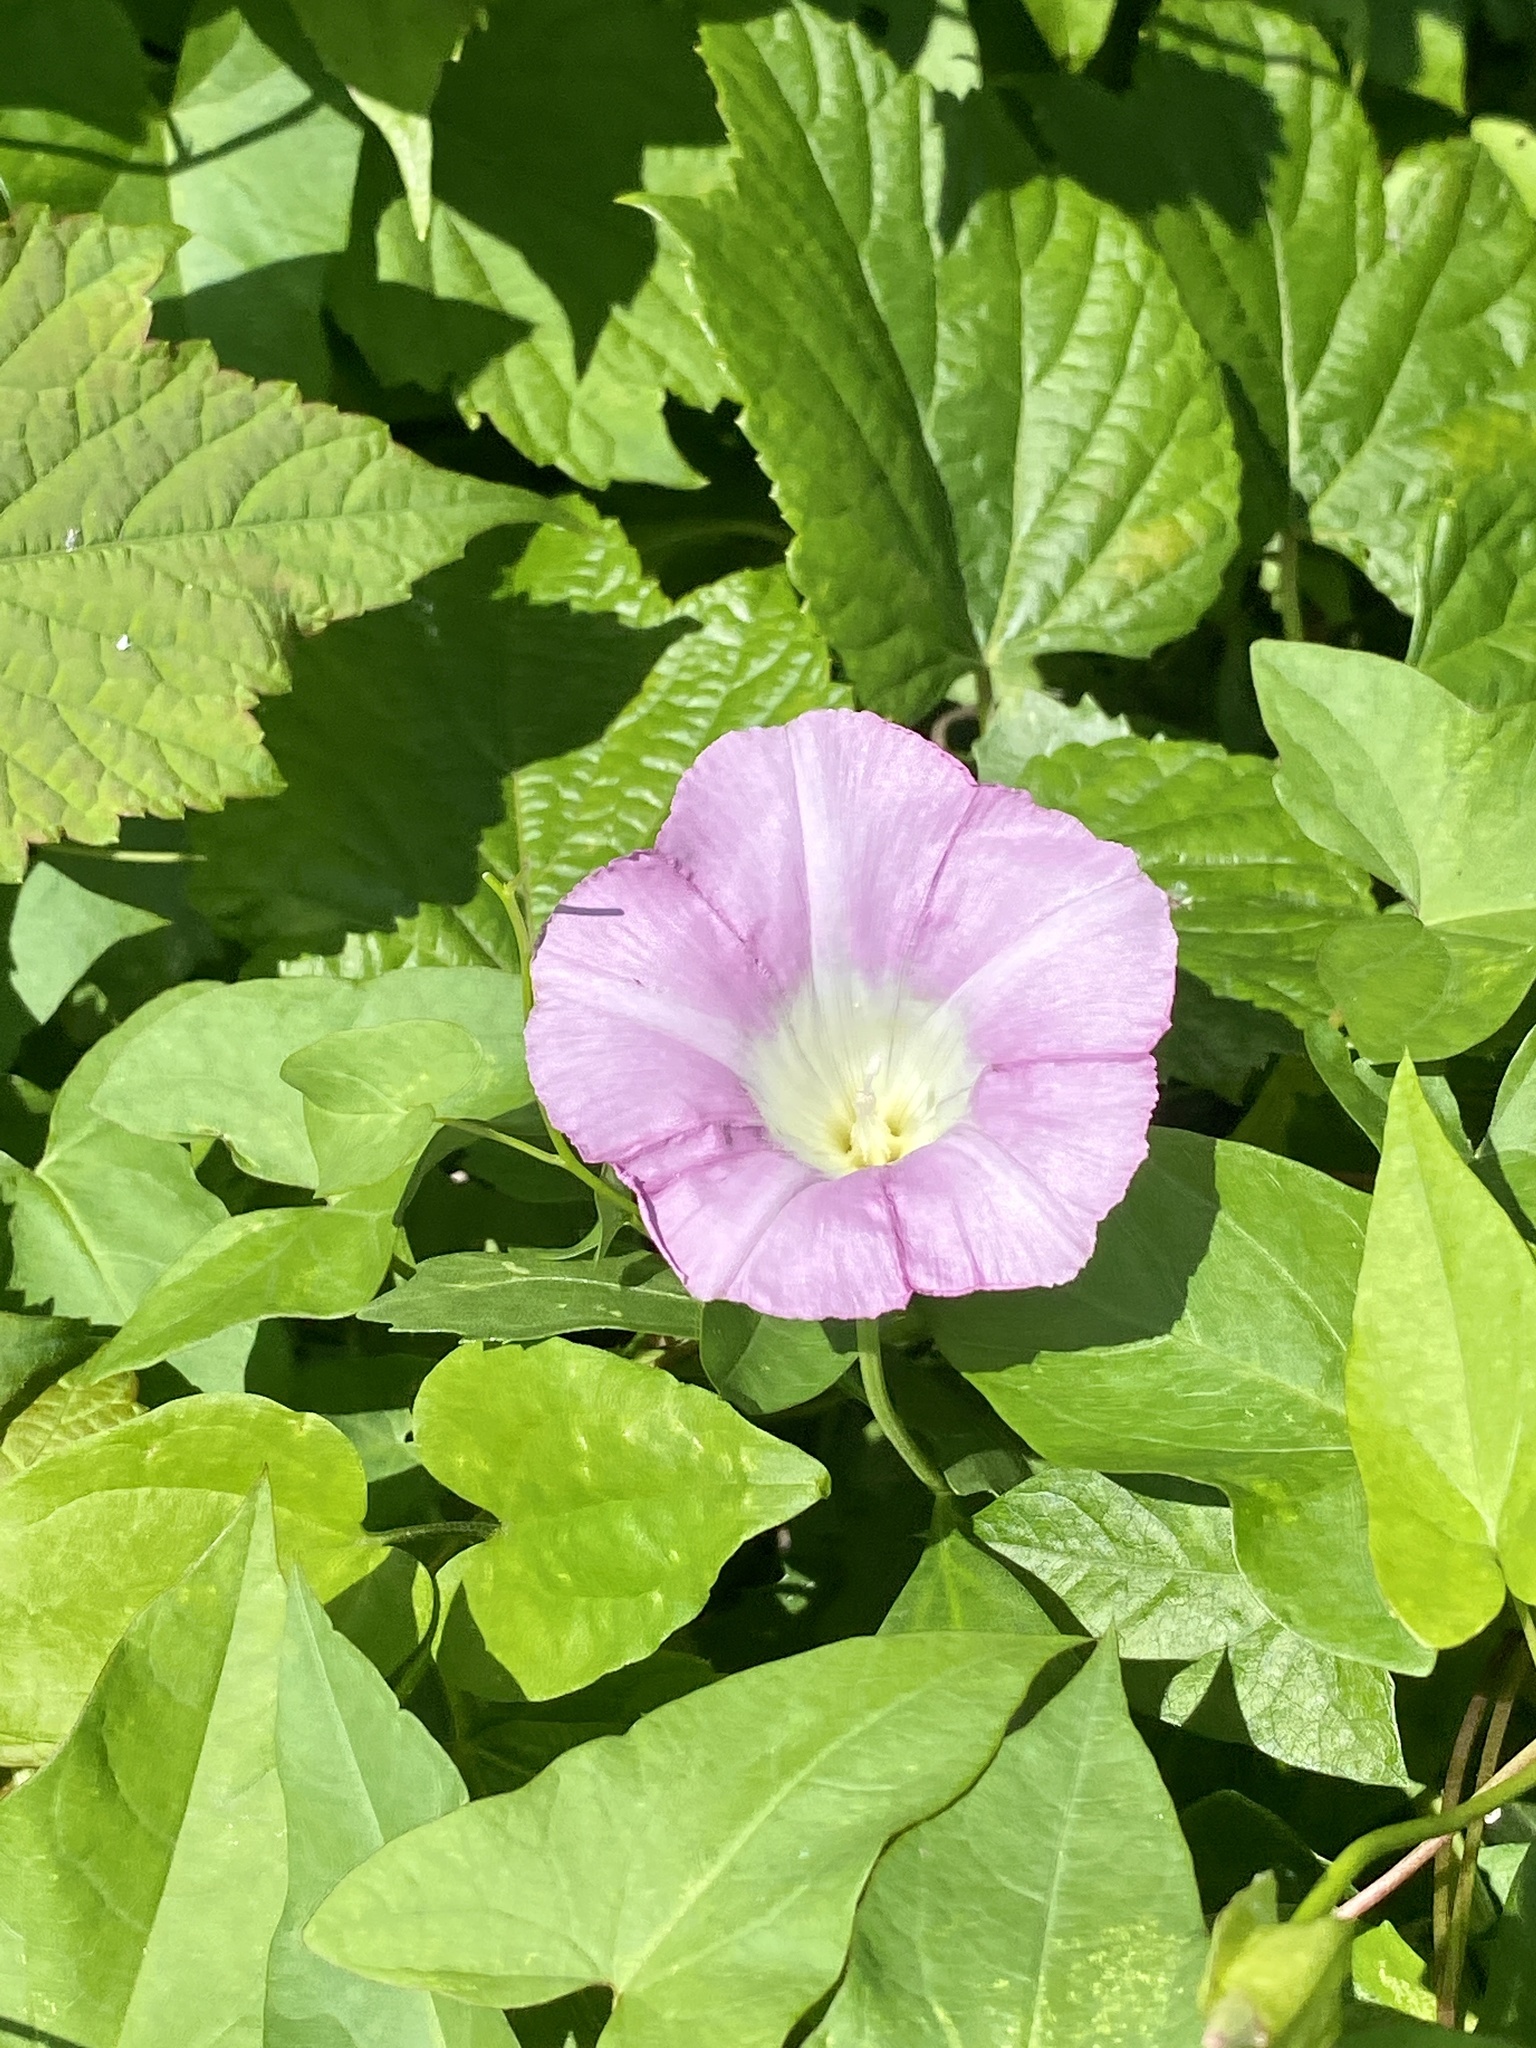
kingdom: Plantae
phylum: Tracheophyta
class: Magnoliopsida
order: Solanales
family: Convolvulaceae
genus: Calystegia
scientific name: Calystegia sepium
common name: Hedge bindweed
